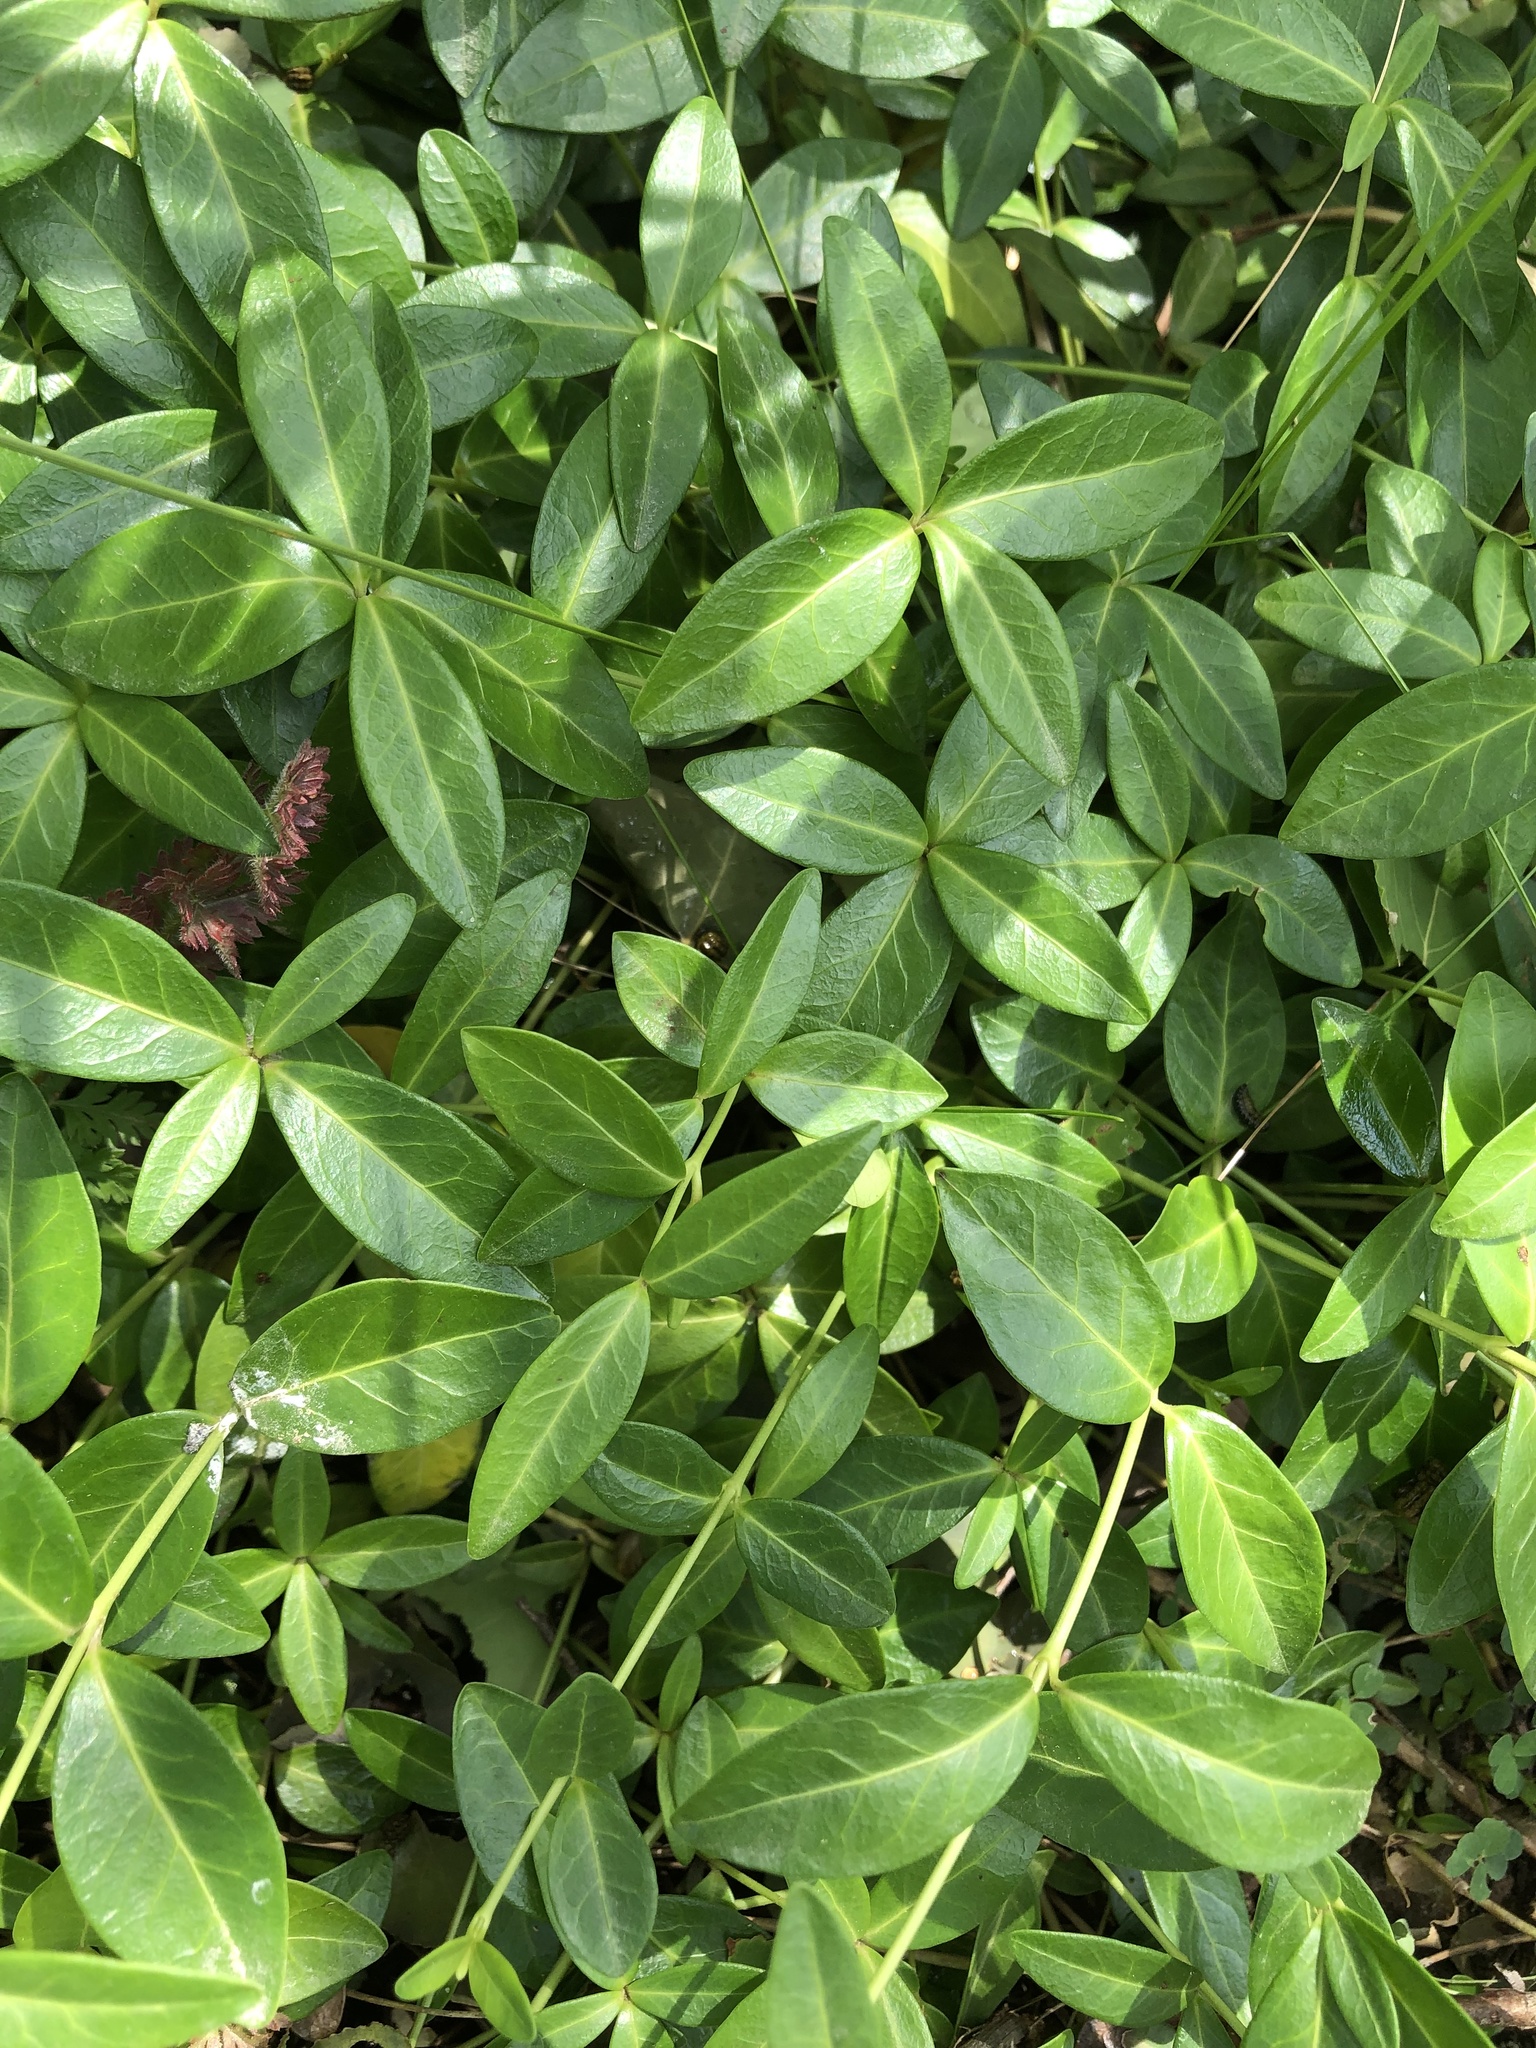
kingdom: Plantae
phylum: Tracheophyta
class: Magnoliopsida
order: Gentianales
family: Apocynaceae
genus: Vinca
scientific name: Vinca minor
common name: Lesser periwinkle
